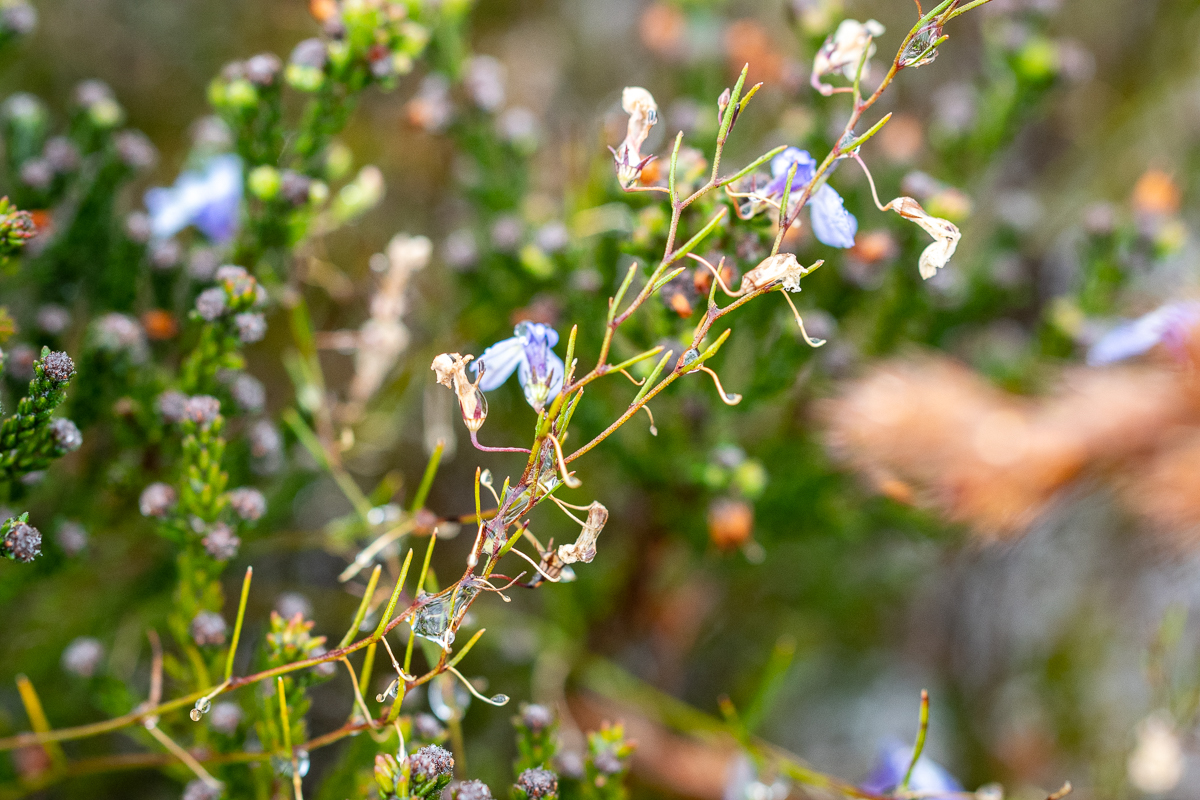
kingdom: Plantae
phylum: Tracheophyta
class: Magnoliopsida
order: Asterales
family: Campanulaceae
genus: Lobelia
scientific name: Lobelia setacea
